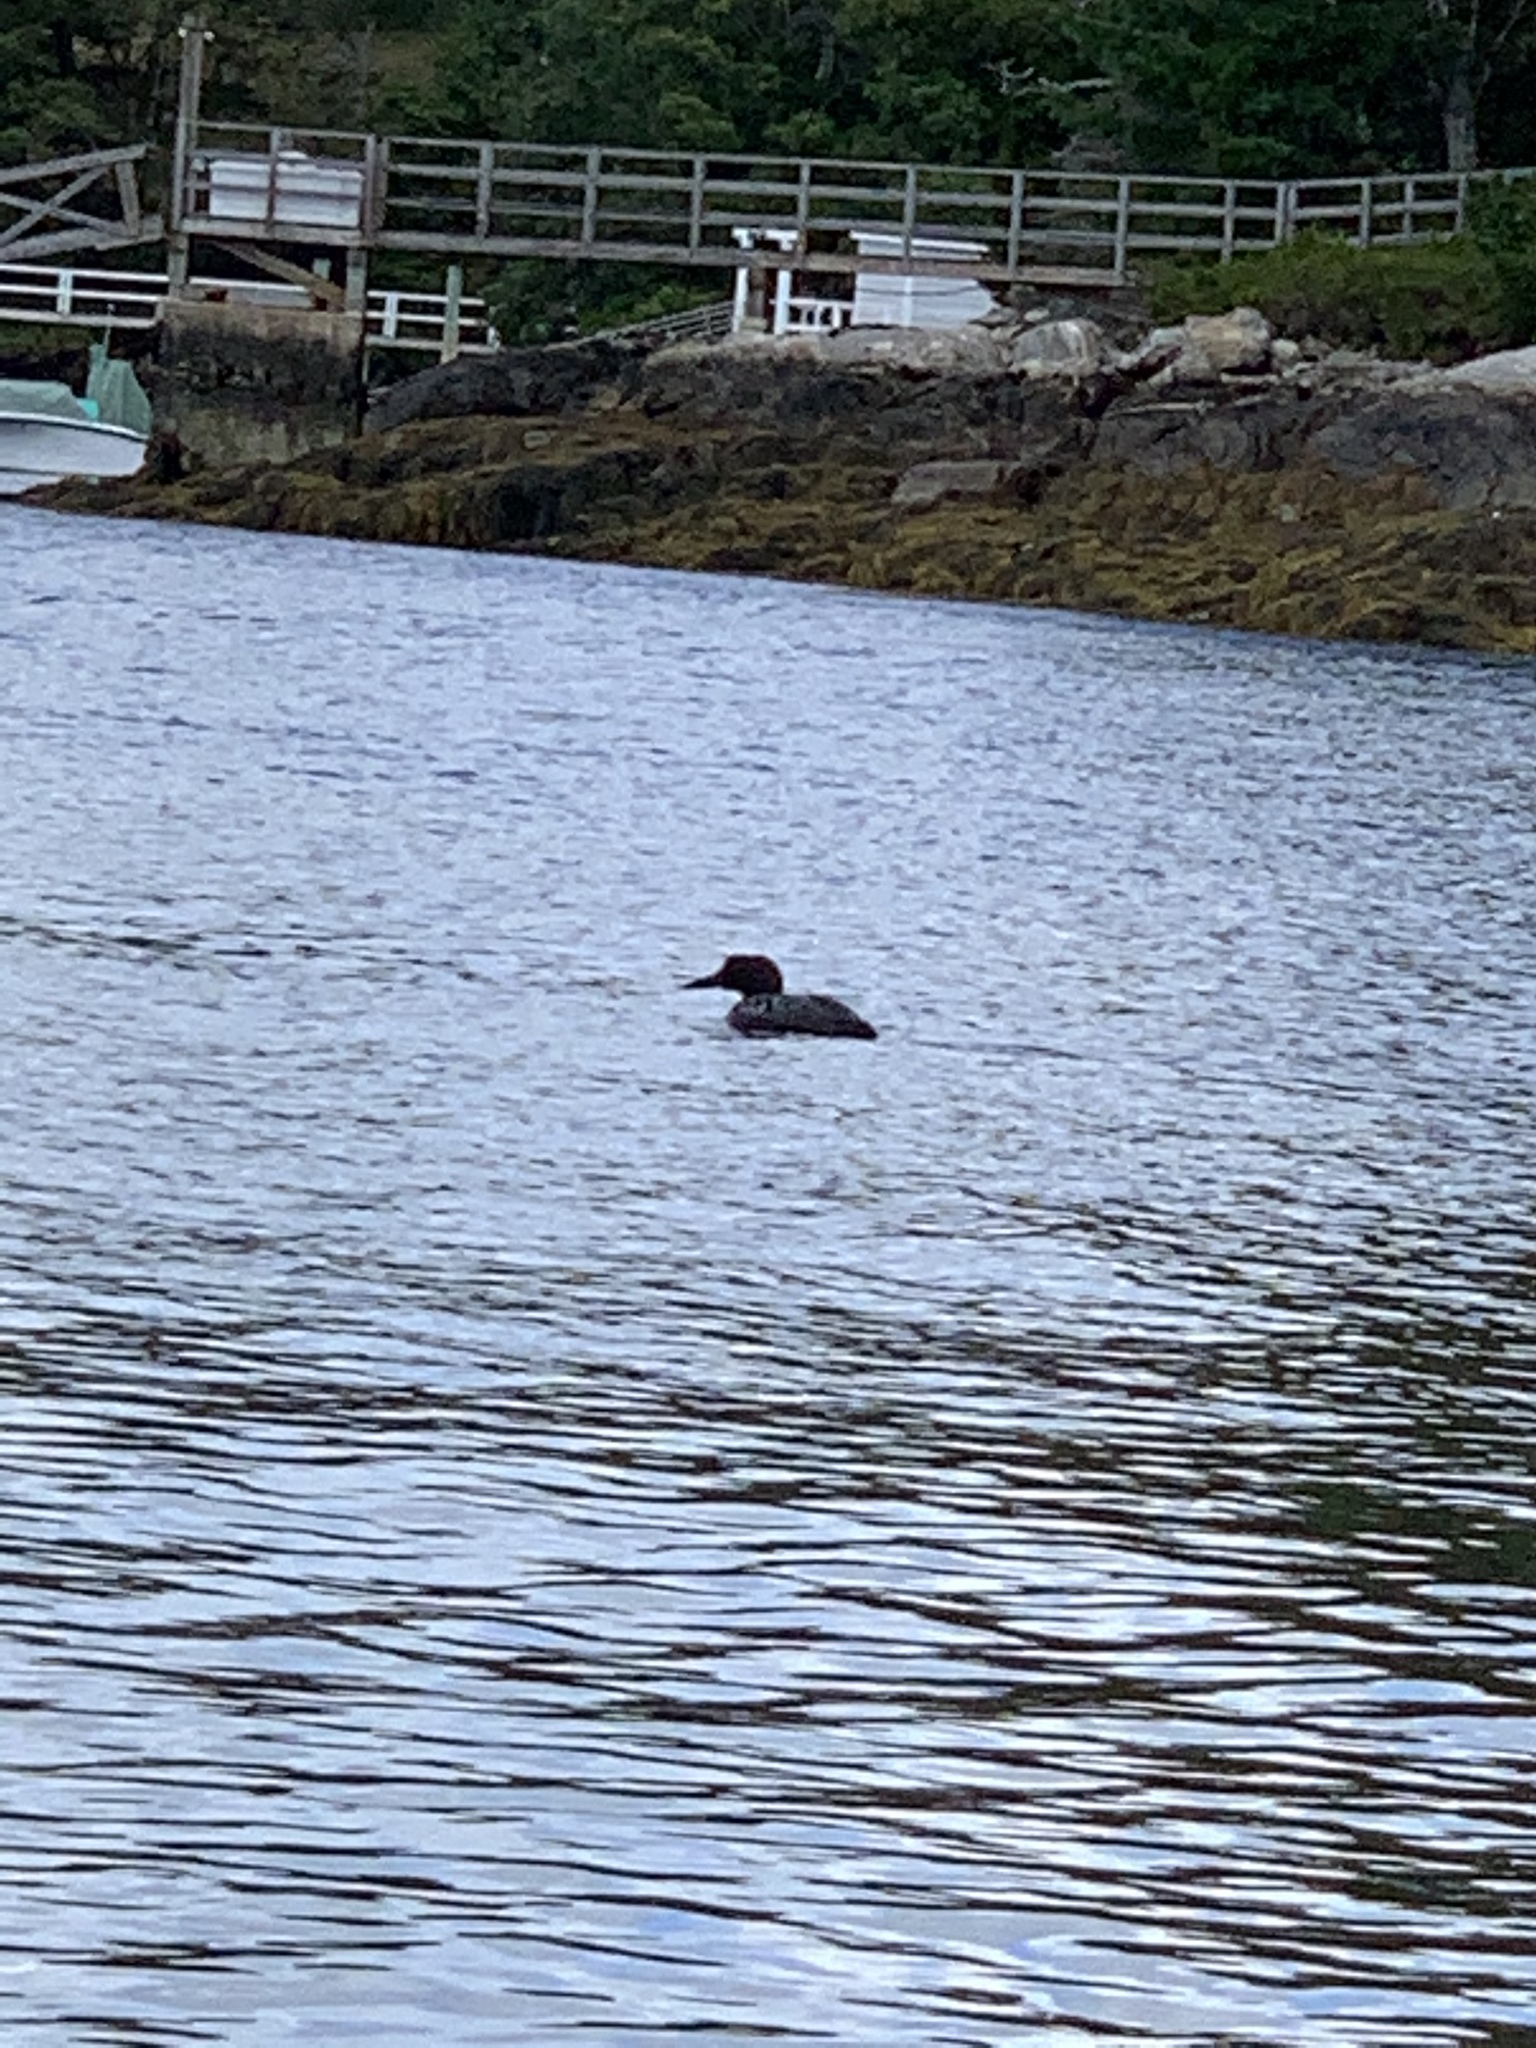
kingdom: Animalia
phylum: Chordata
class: Aves
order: Gaviiformes
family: Gaviidae
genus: Gavia
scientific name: Gavia immer
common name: Common loon
